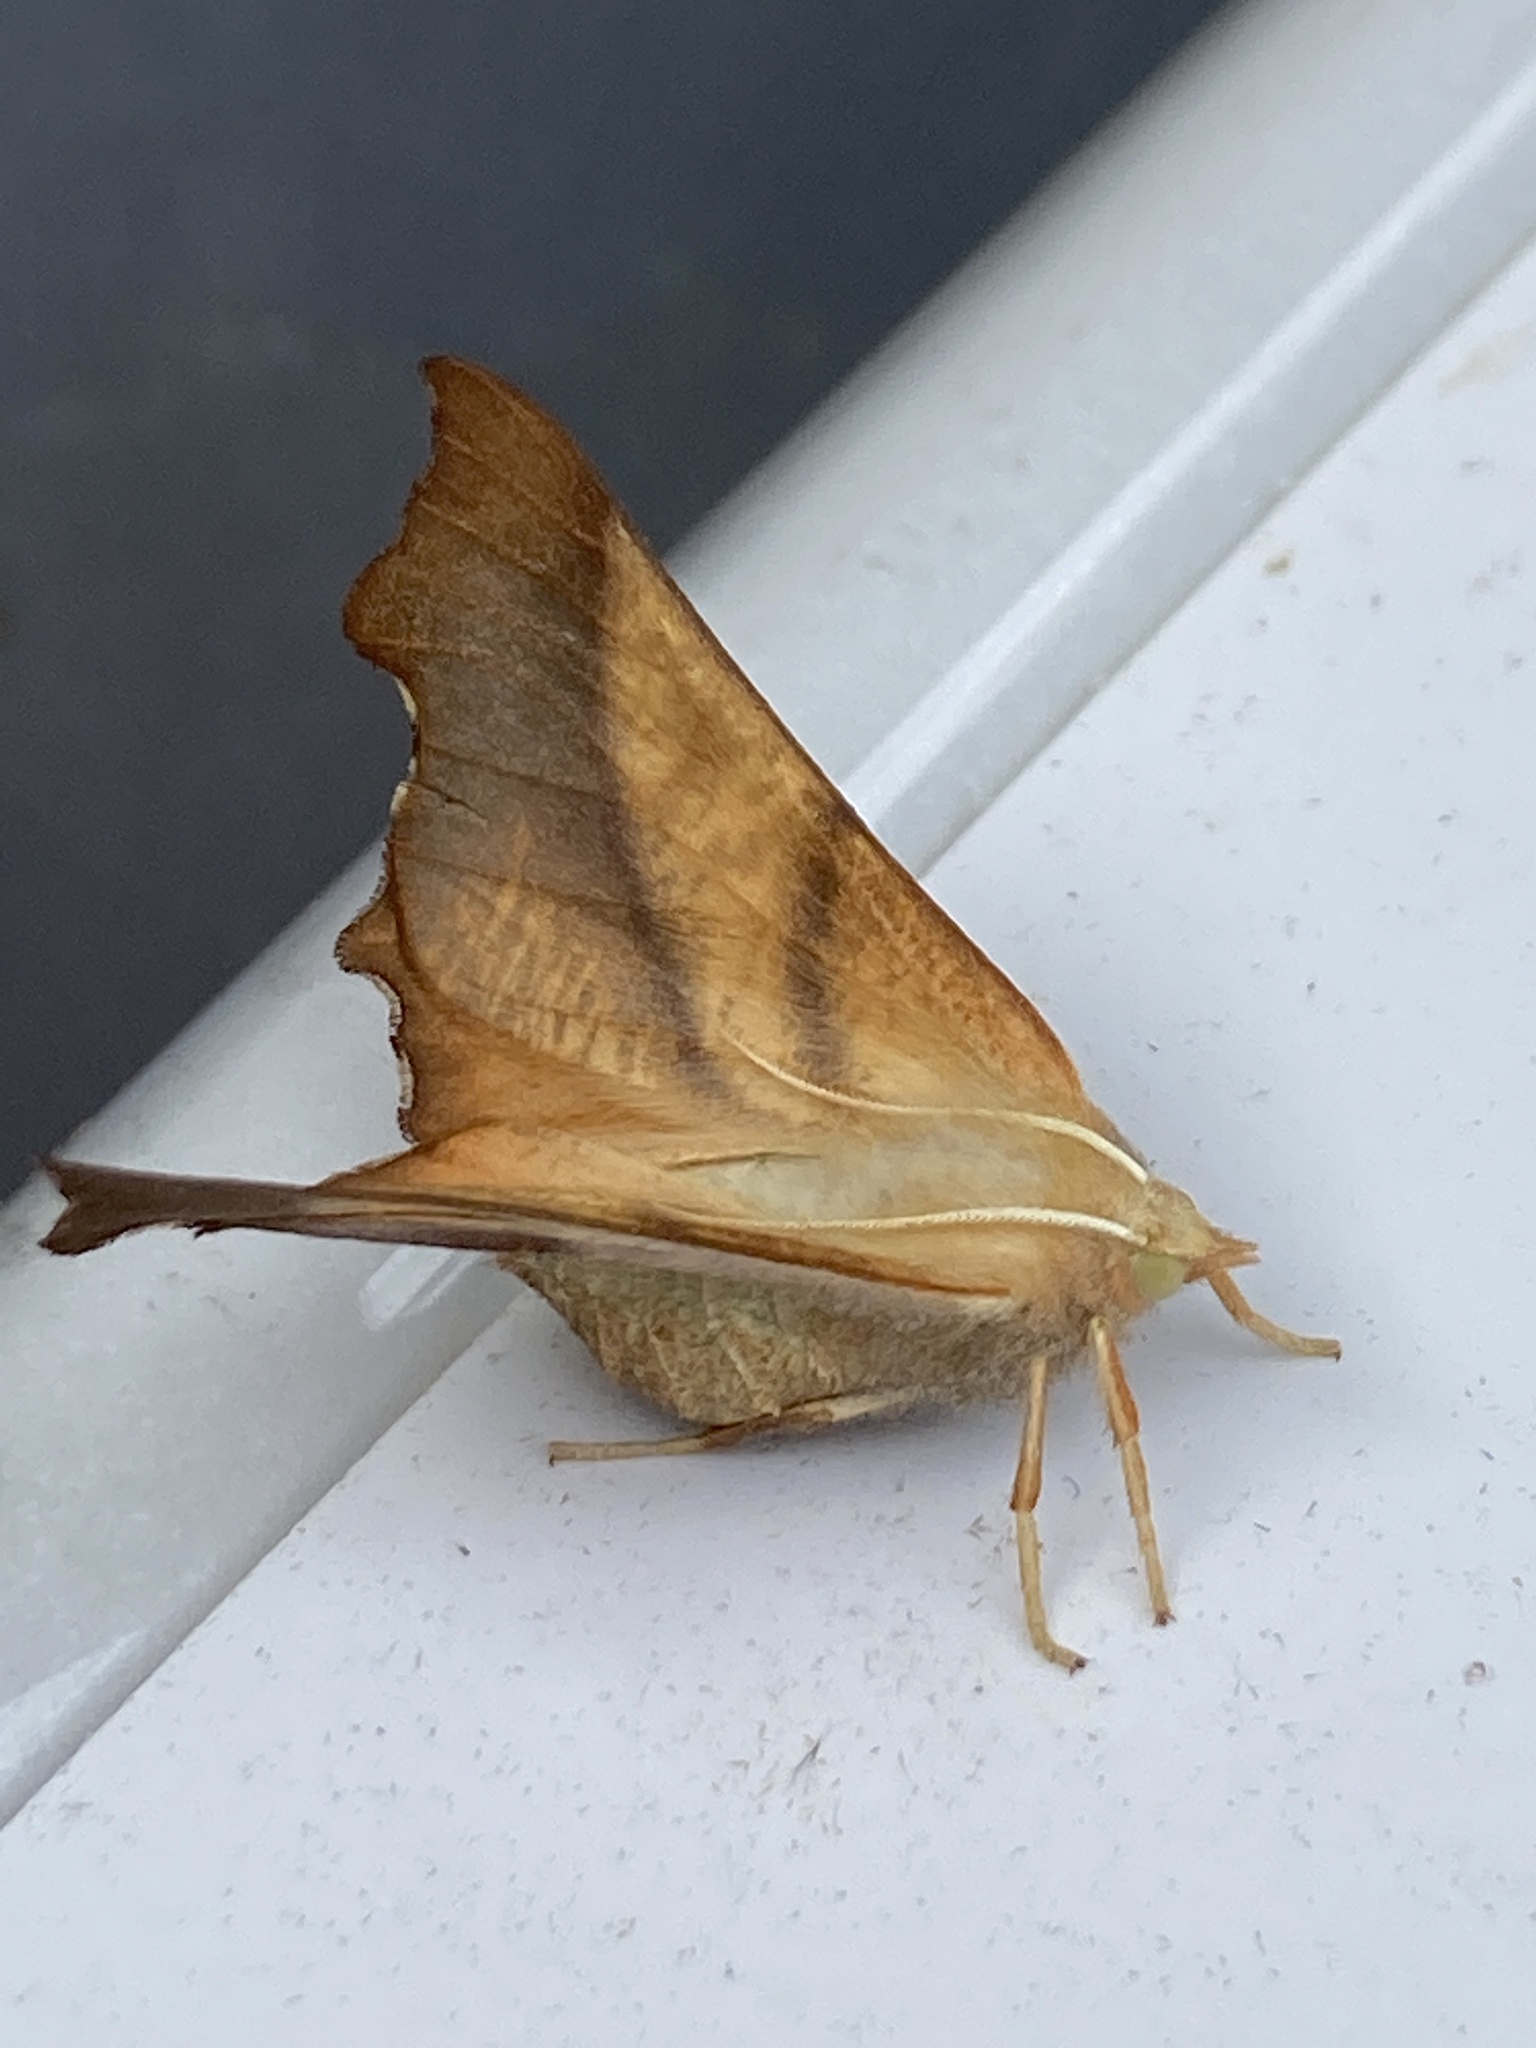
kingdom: Animalia
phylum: Arthropoda
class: Insecta
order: Lepidoptera
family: Geometridae
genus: Ennomos
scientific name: Ennomos fuscantaria
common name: Dusky thorn
